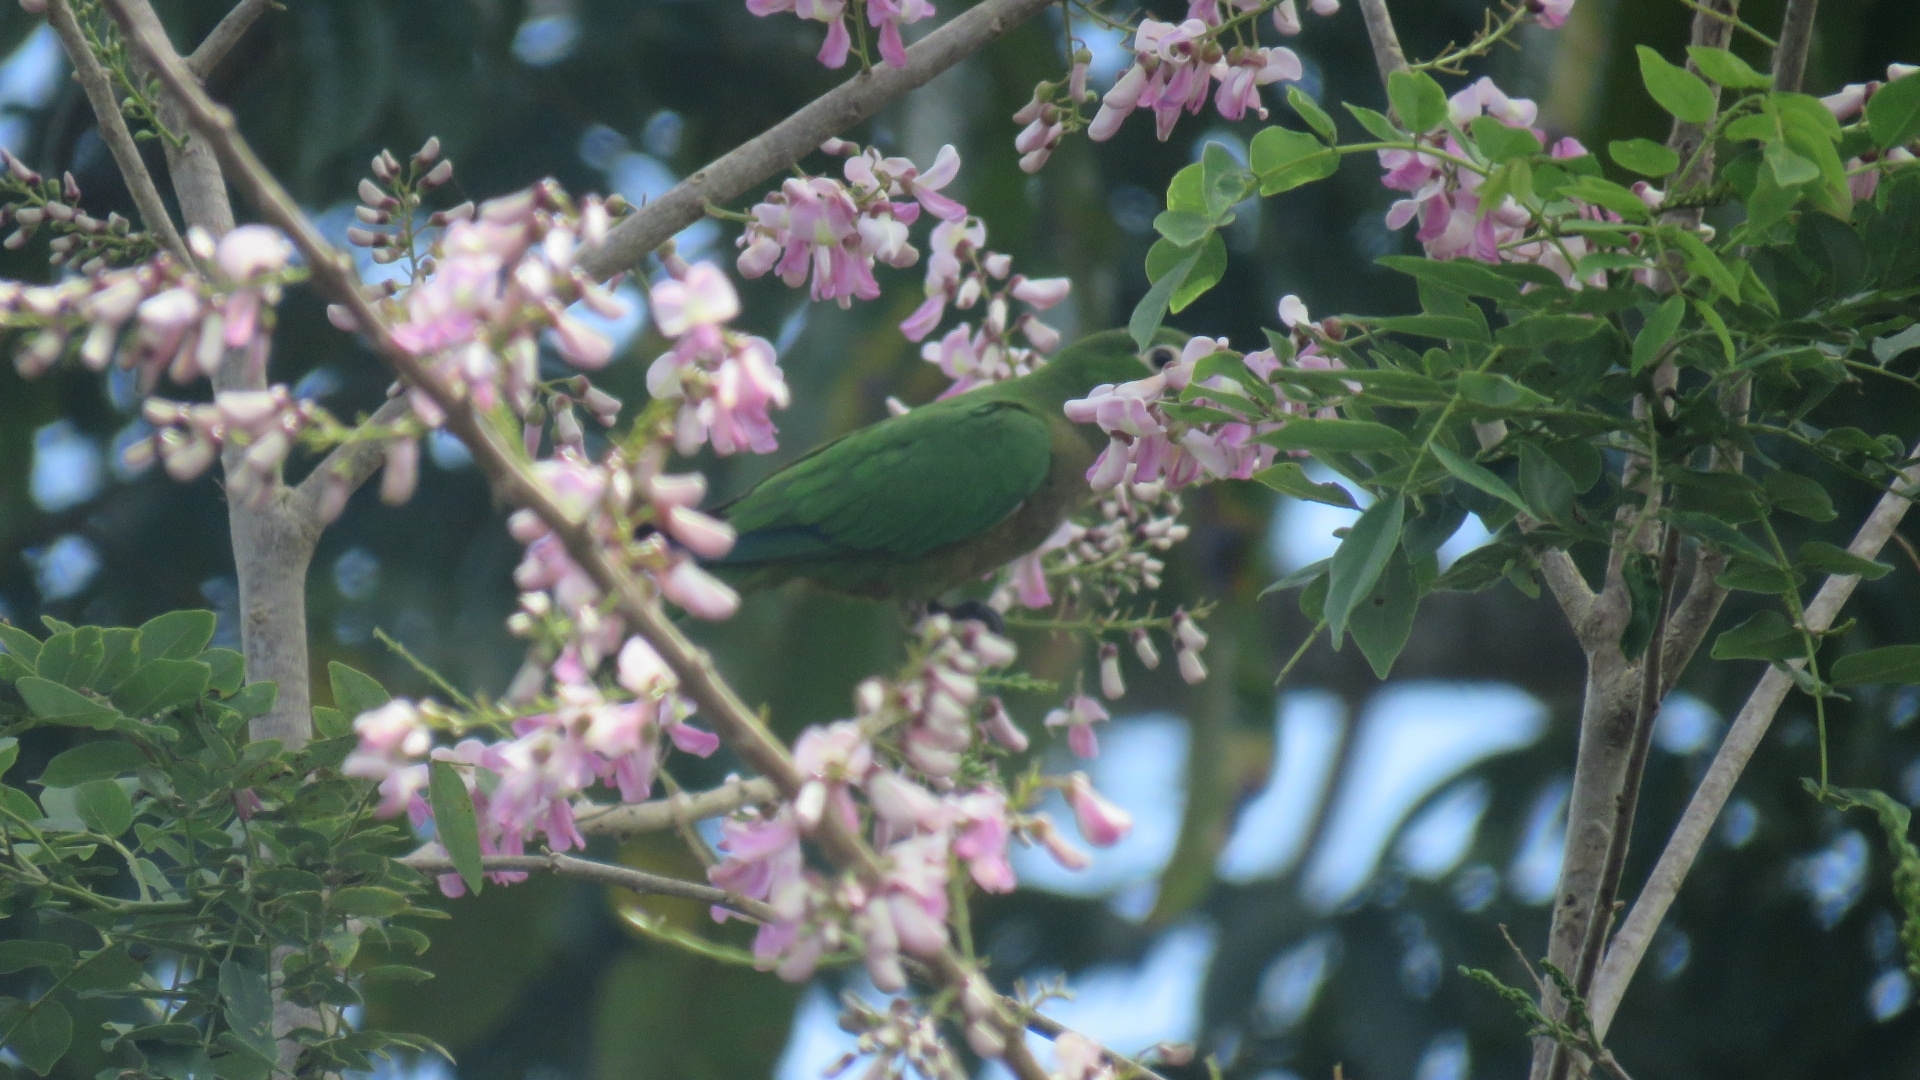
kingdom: Animalia
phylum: Chordata
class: Aves
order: Psittaciformes
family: Psittacidae
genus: Aratinga
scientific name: Aratinga nana
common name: Olive-throated parakeet
